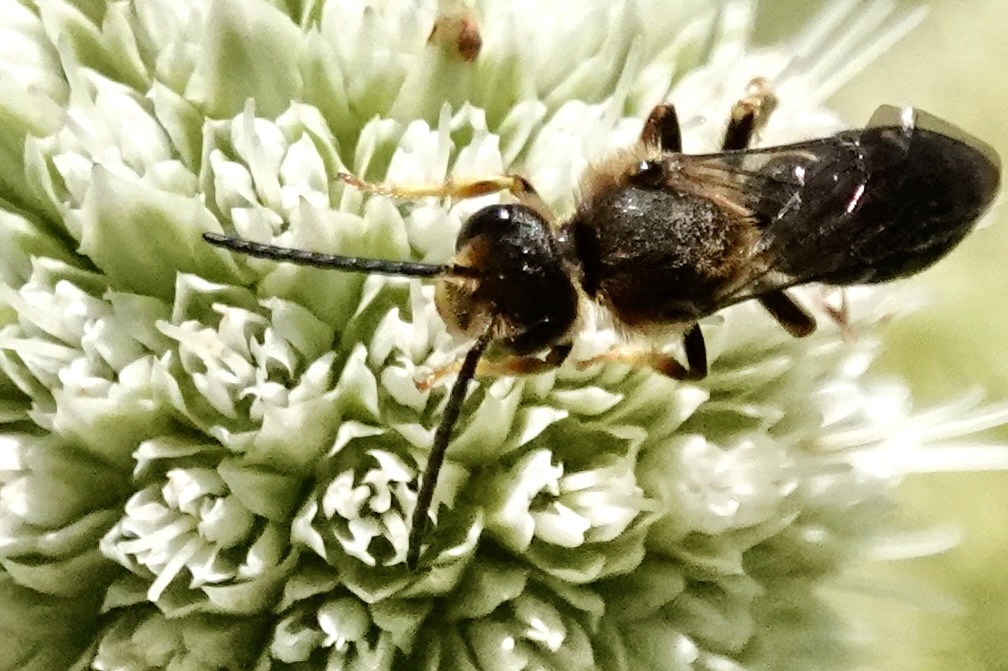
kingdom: Animalia
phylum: Arthropoda
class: Insecta
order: Hymenoptera
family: Halictidae
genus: Halictus
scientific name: Halictus rubicundus
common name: Orange-legged furrow bee
